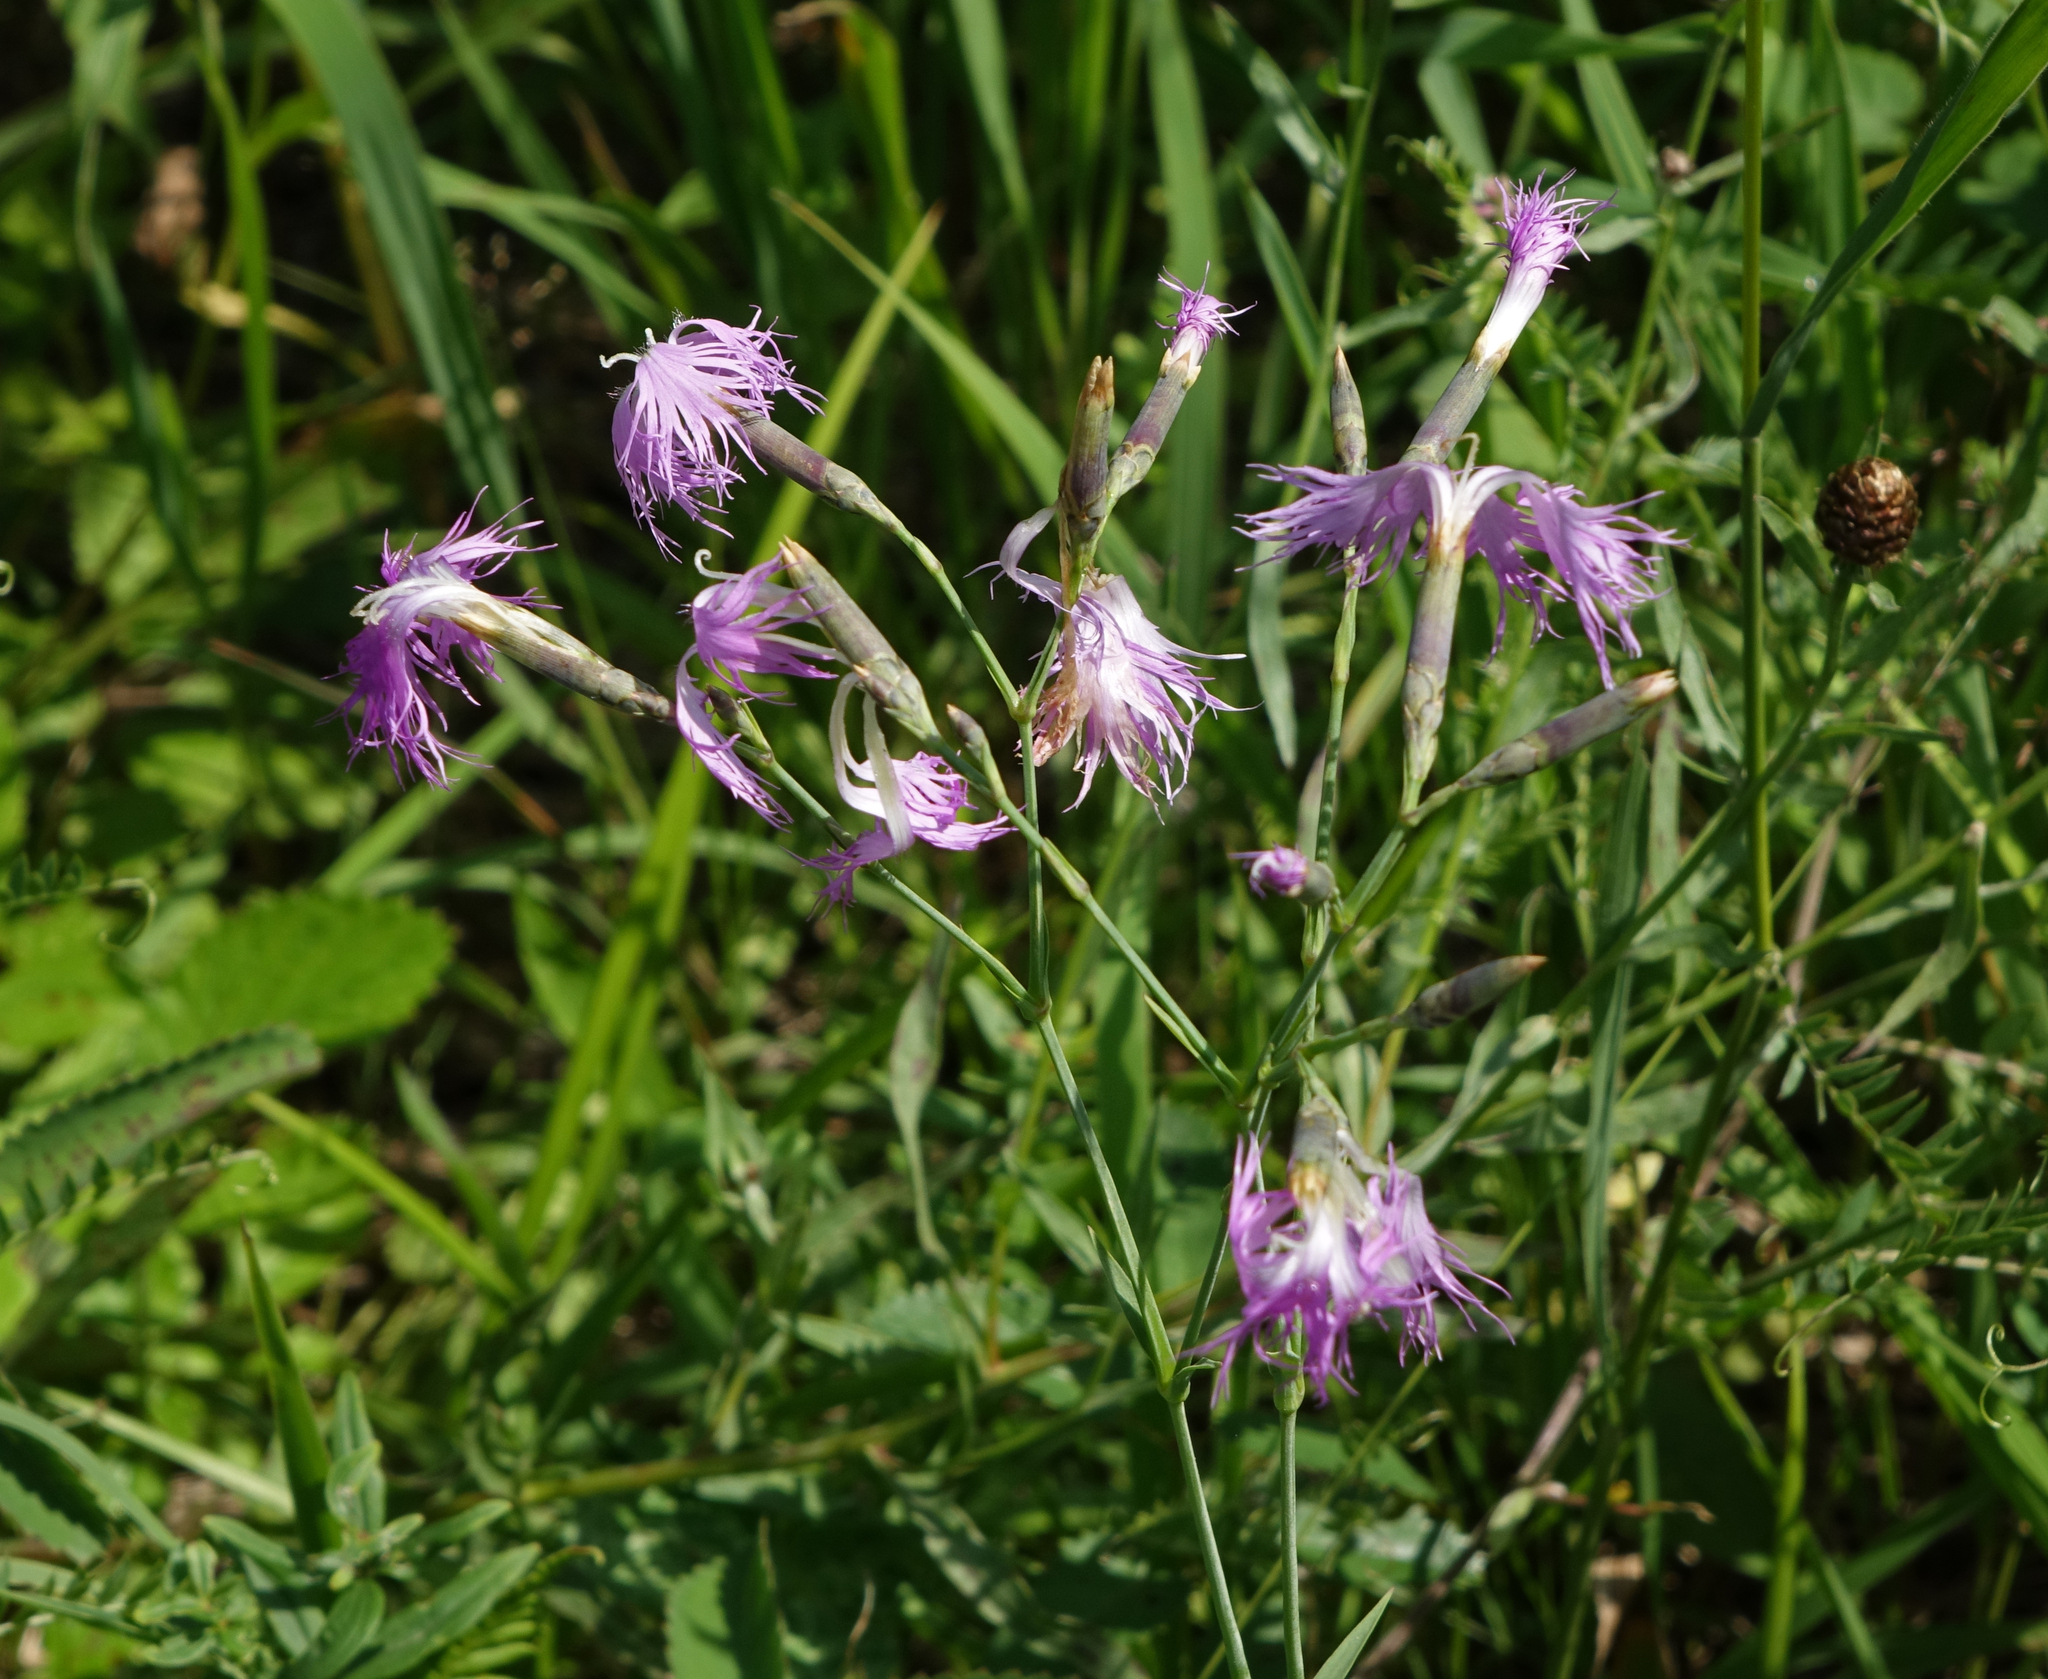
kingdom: Plantae
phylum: Tracheophyta
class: Magnoliopsida
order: Caryophyllales
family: Caryophyllaceae
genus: Dianthus
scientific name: Dianthus superbus
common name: Fringed pink
